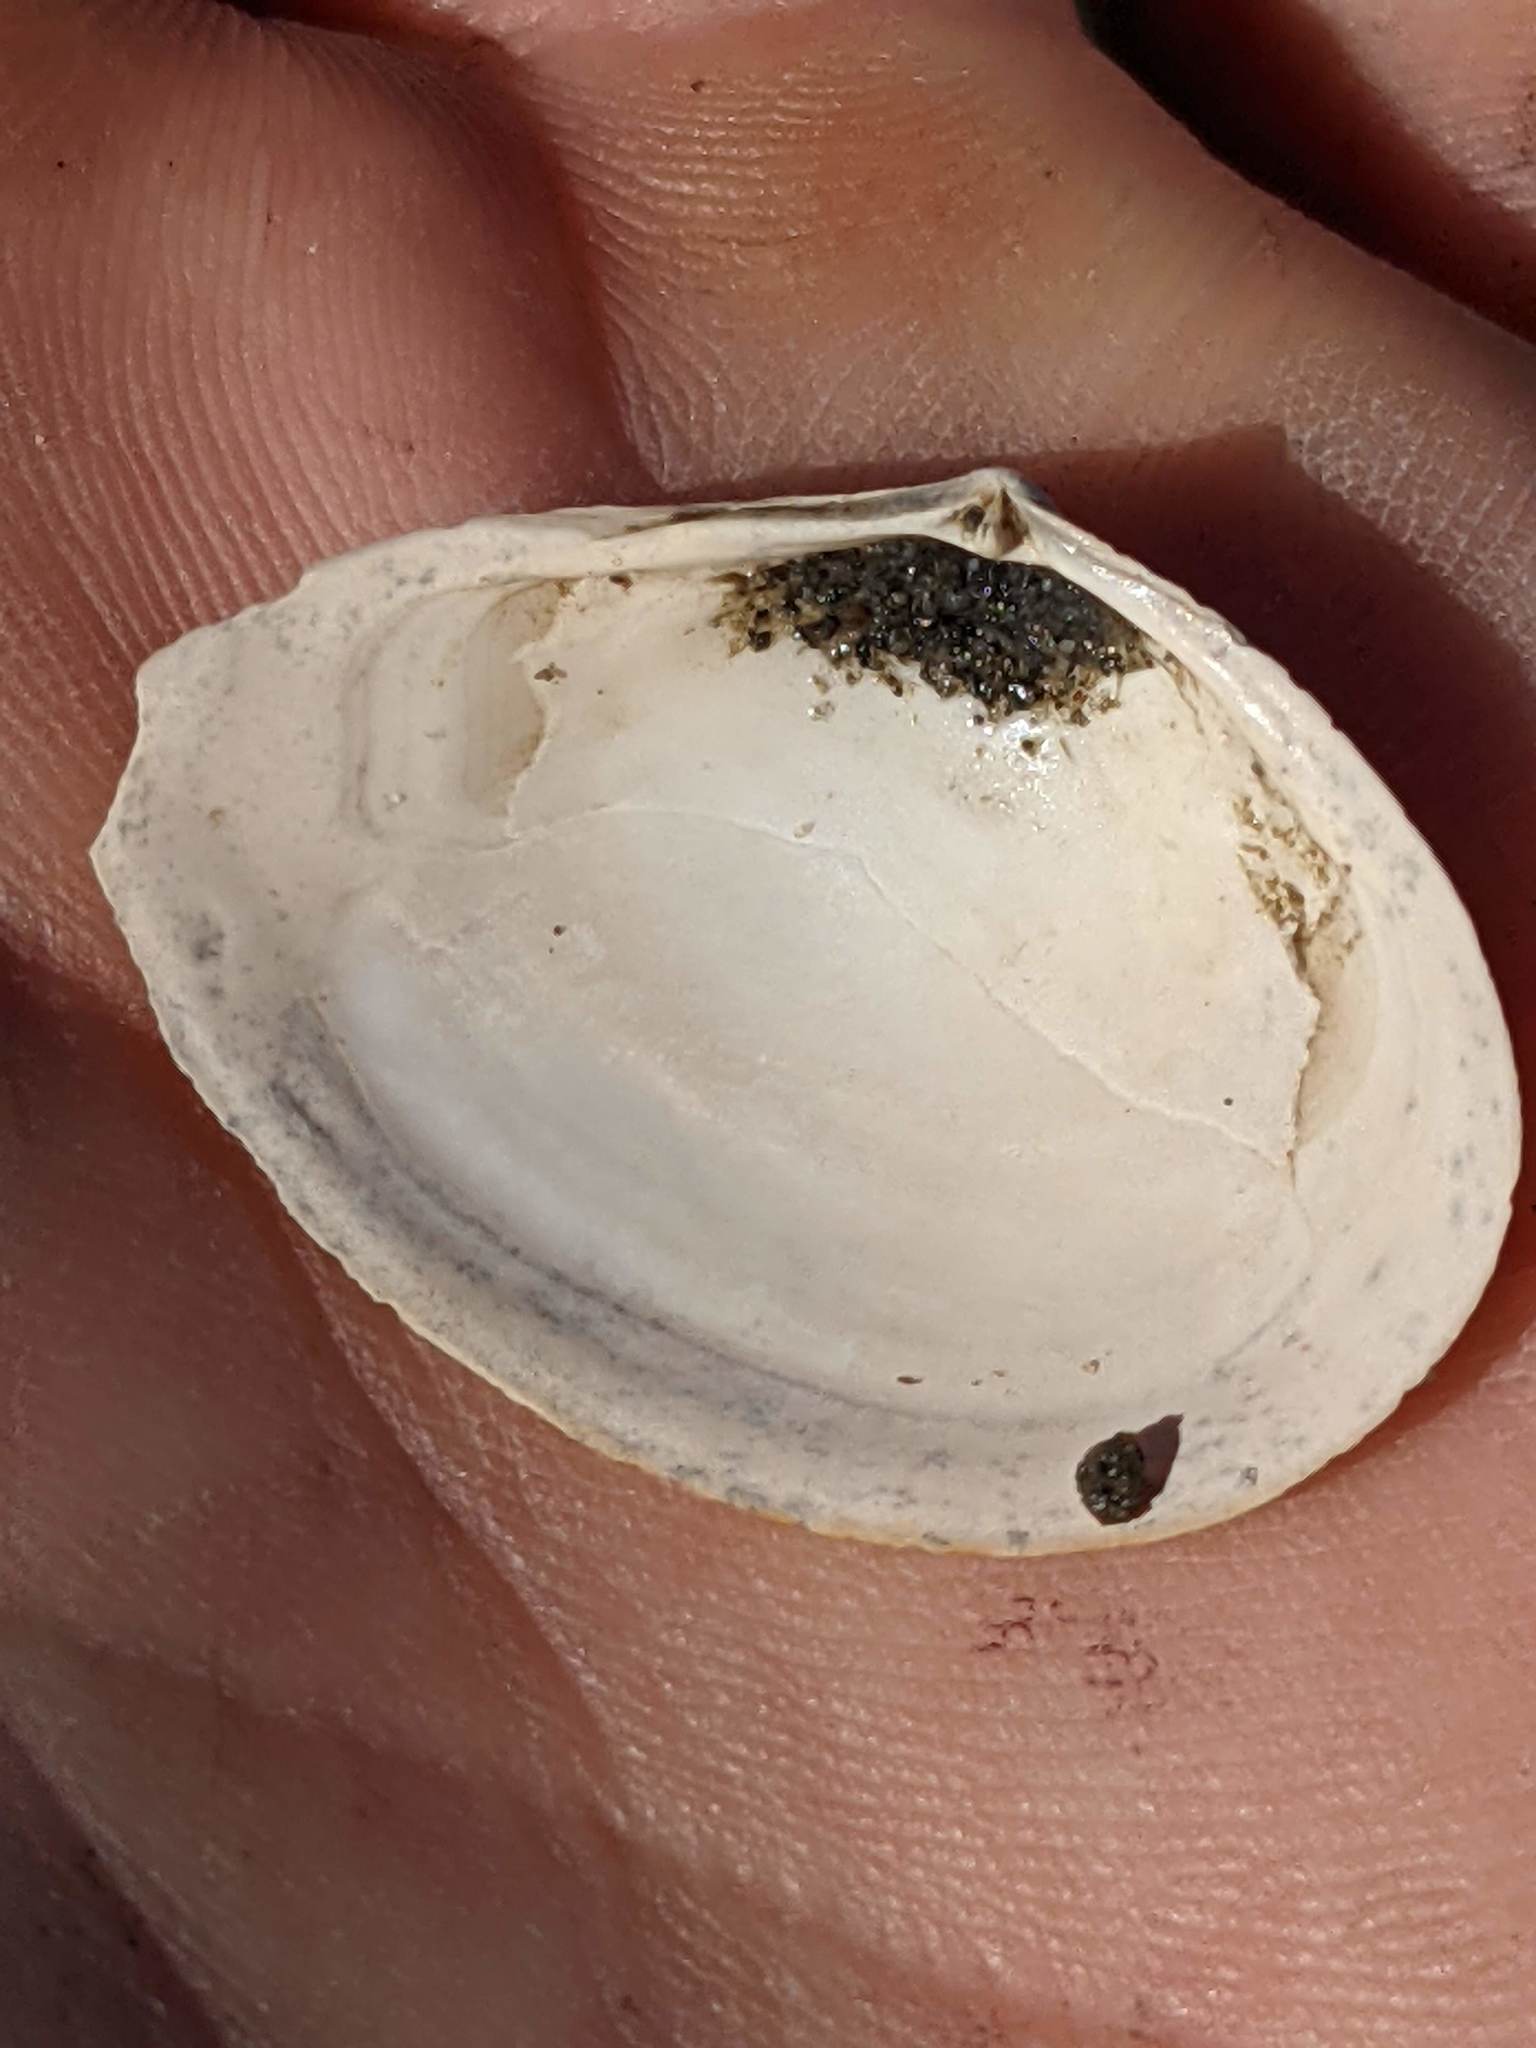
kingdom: Animalia
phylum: Mollusca
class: Bivalvia
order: Cardiida
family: Tellinidae
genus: Macoma
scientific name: Macoma nasuta
